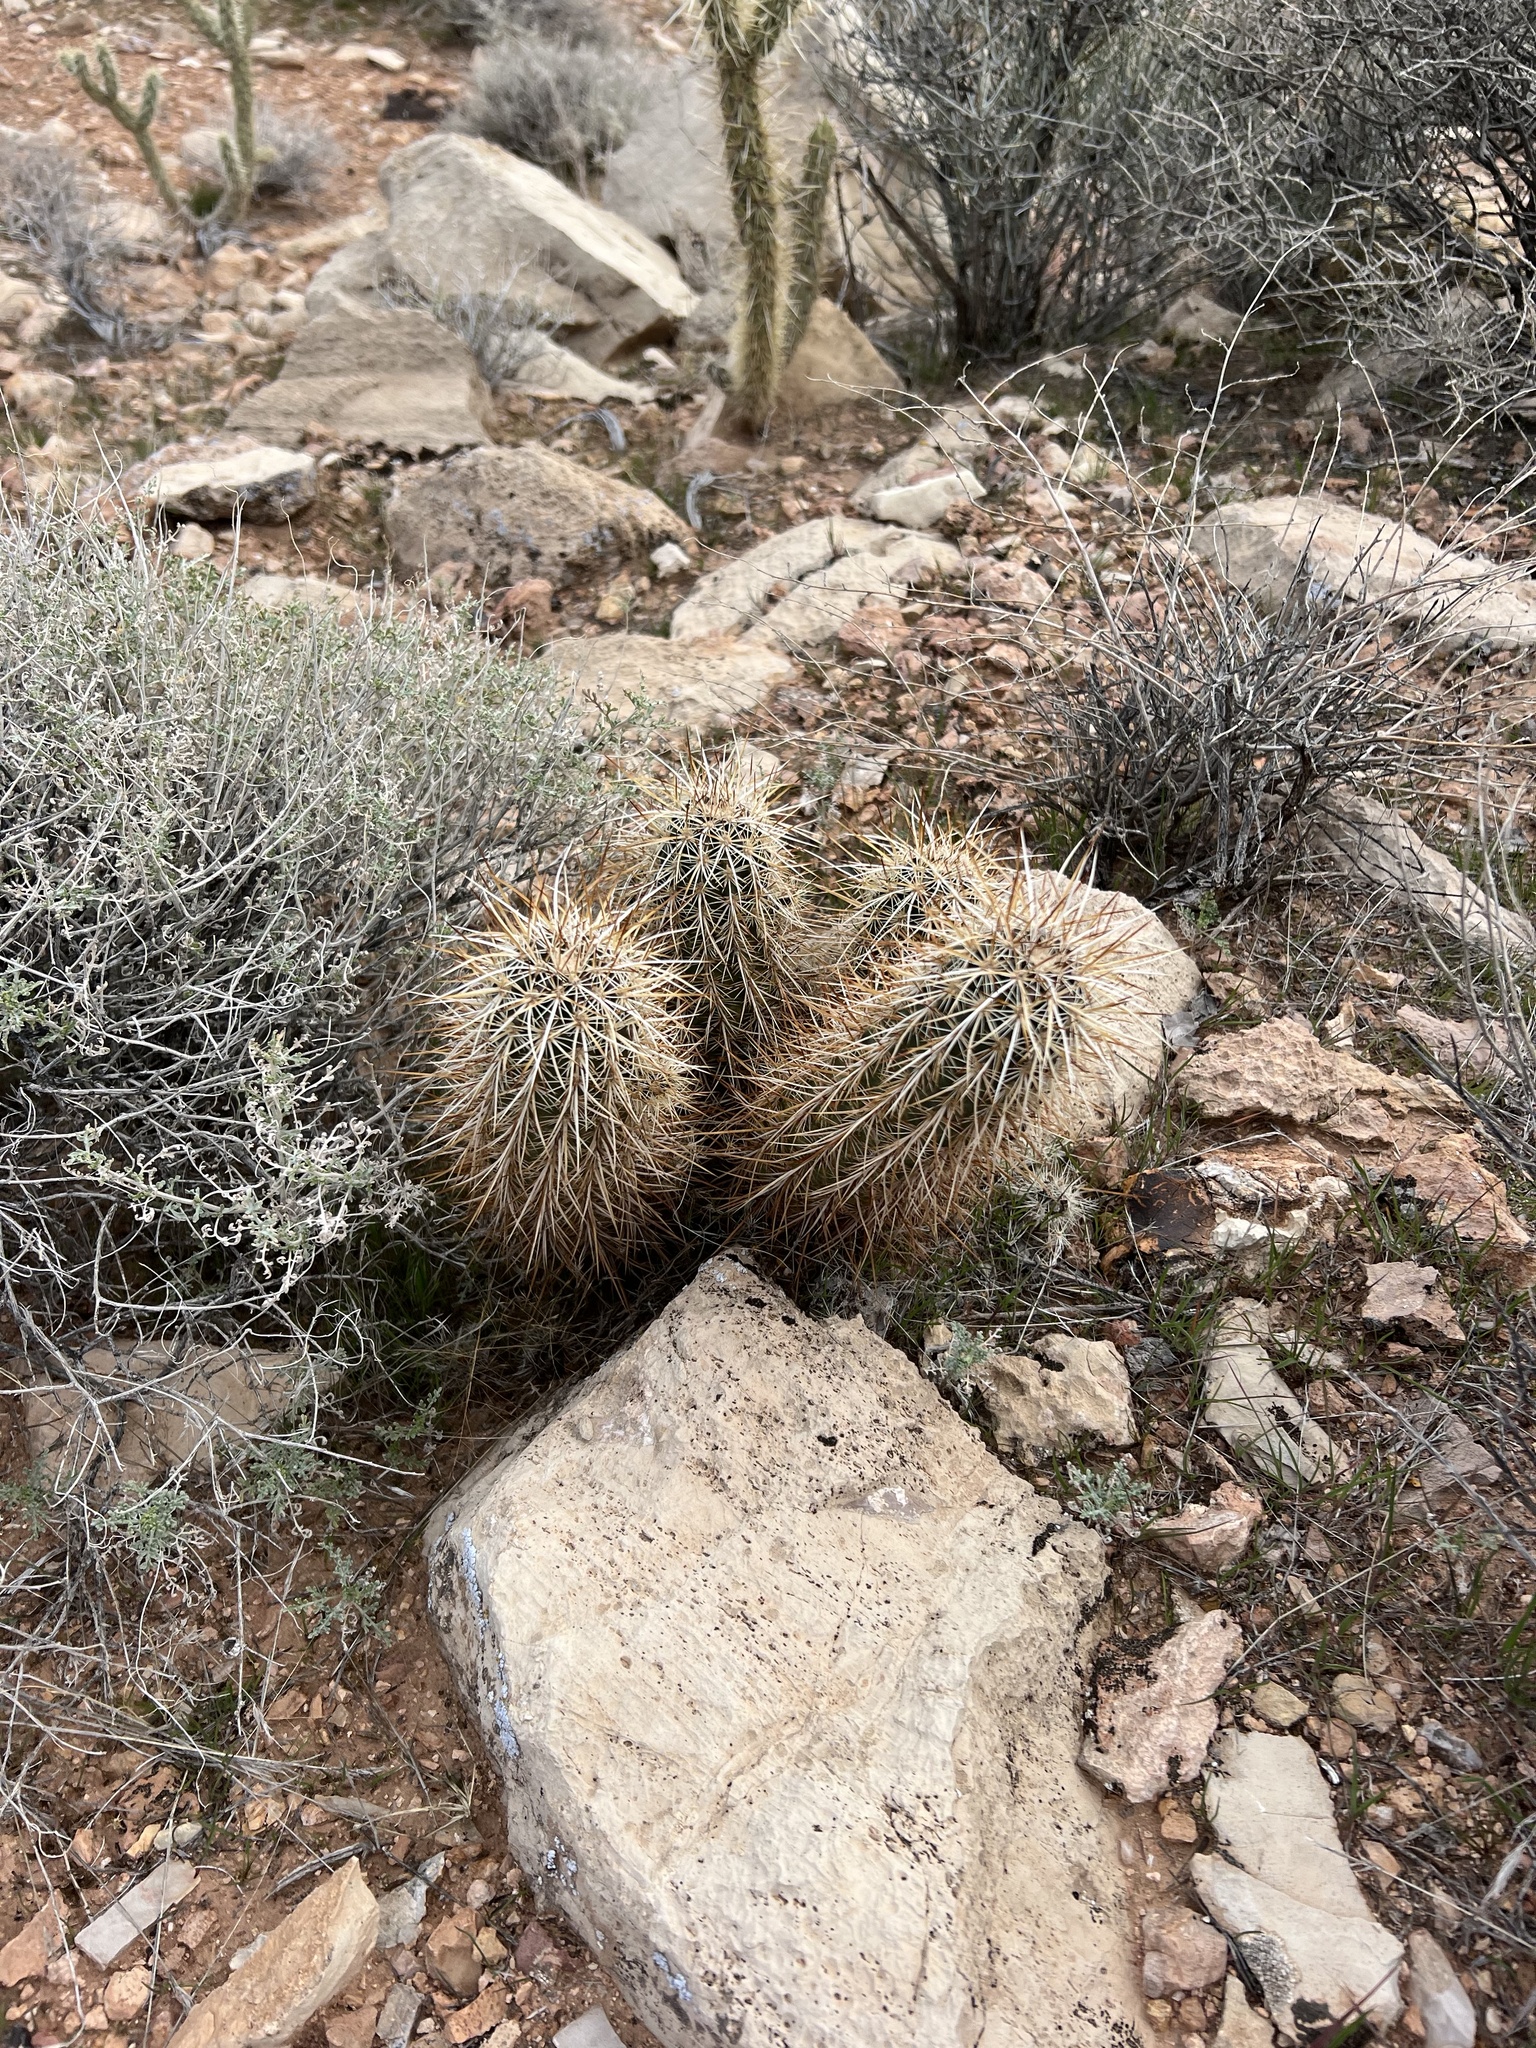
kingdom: Plantae
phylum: Tracheophyta
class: Magnoliopsida
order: Caryophyllales
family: Cactaceae
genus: Echinocereus
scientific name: Echinocereus engelmannii
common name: Engelmann's hedgehog cactus
